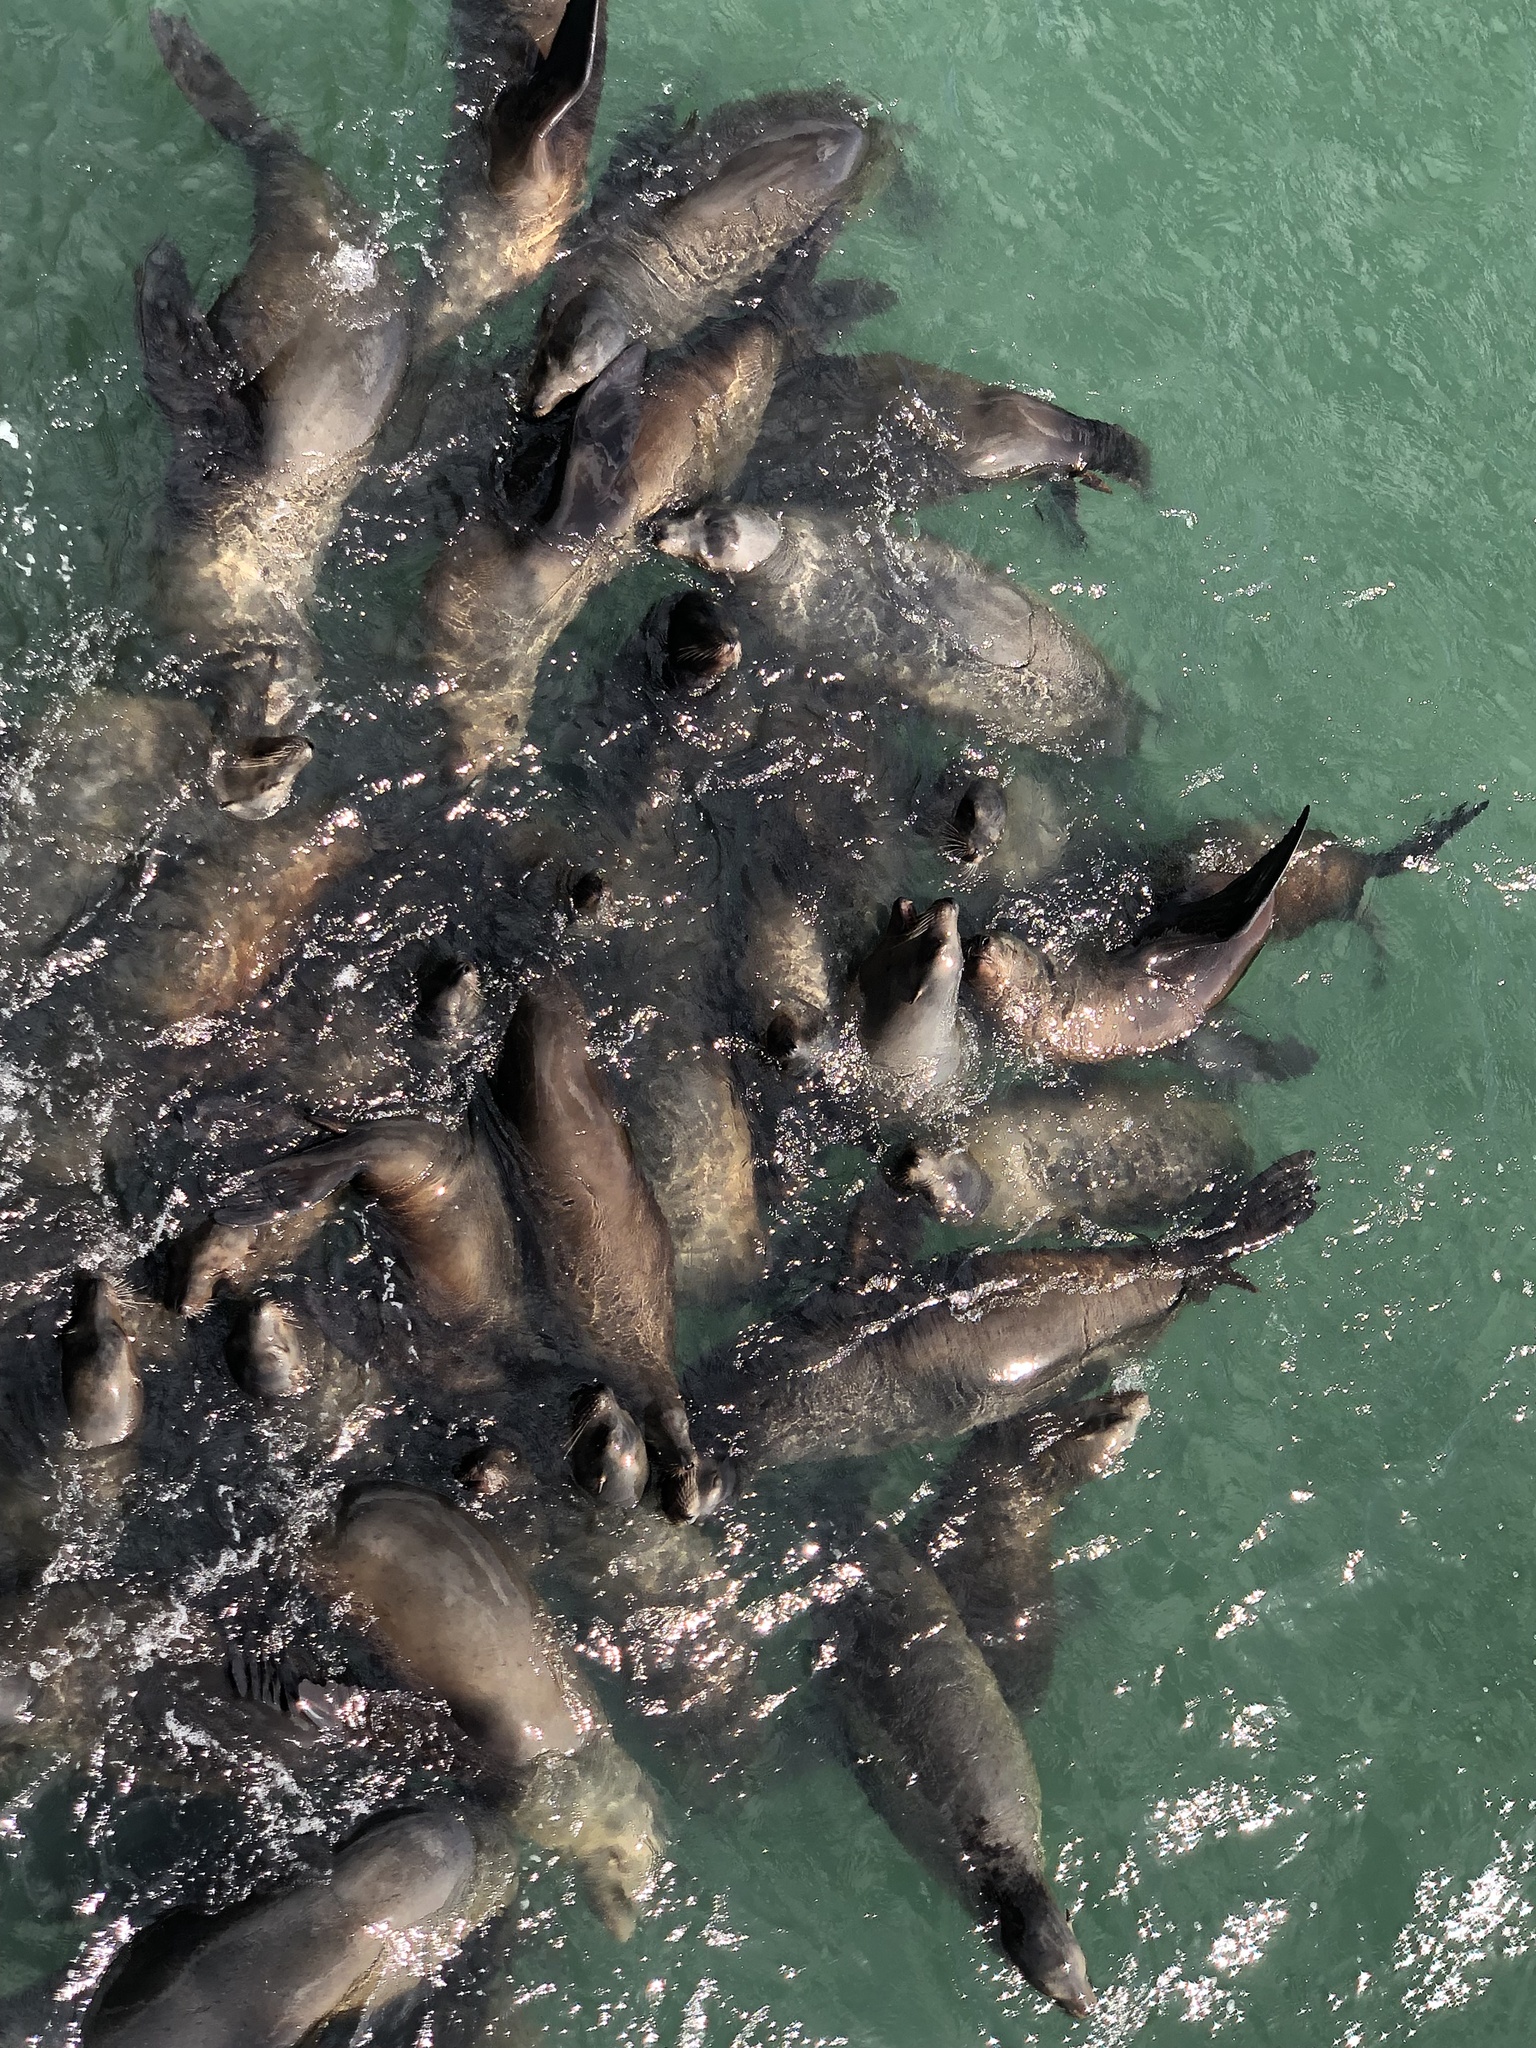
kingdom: Animalia
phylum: Chordata
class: Mammalia
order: Carnivora
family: Otariidae
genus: Zalophus
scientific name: Zalophus californianus
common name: California sea lion
